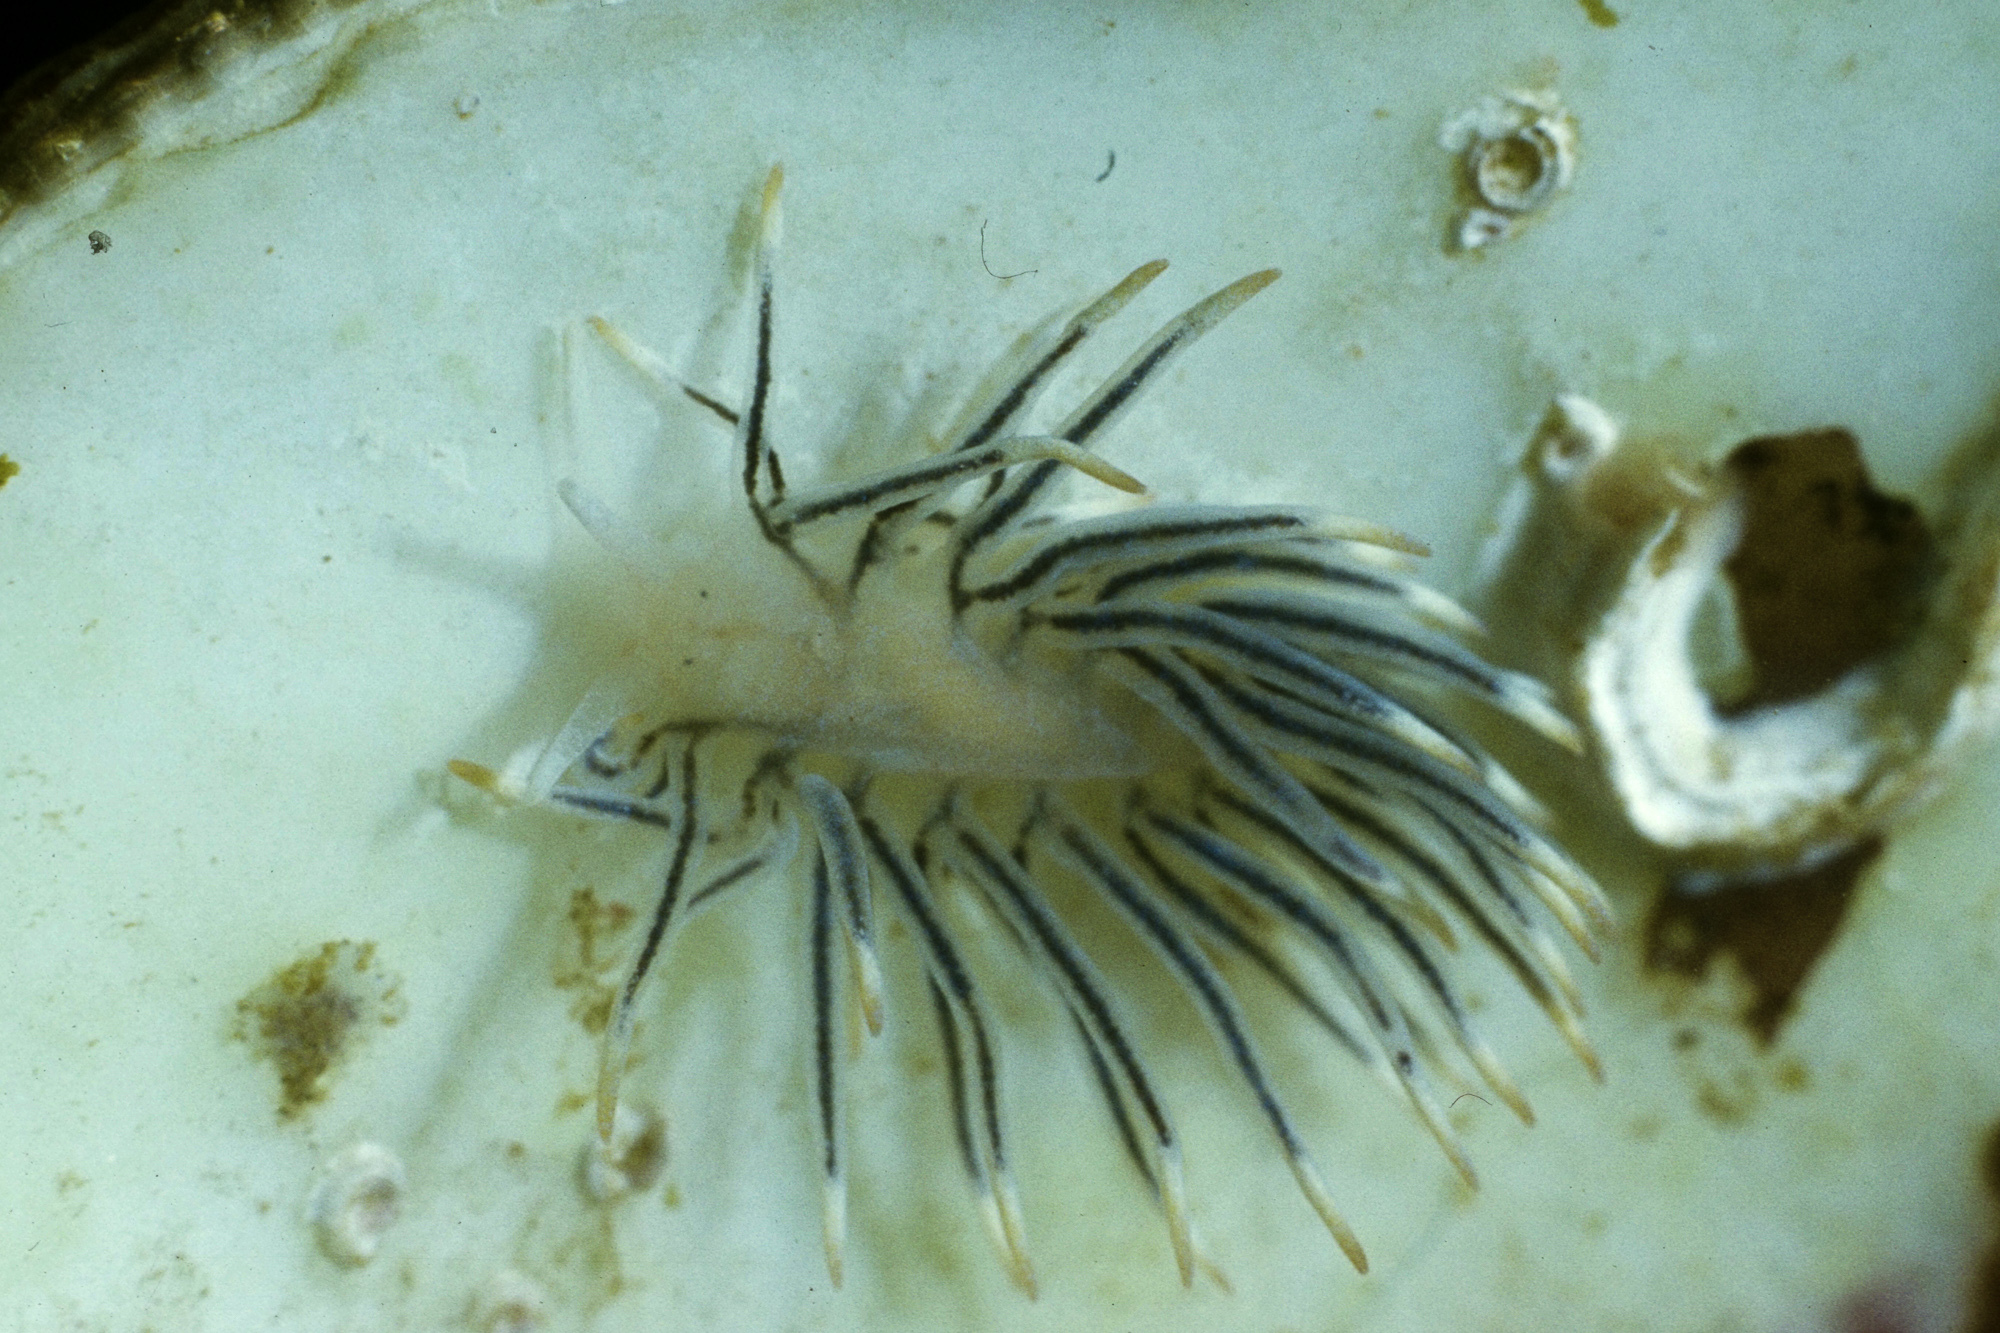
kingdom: Animalia
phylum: Mollusca
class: Gastropoda
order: Nudibranchia
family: Calmidae
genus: Calma
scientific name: Calma glaucoides
